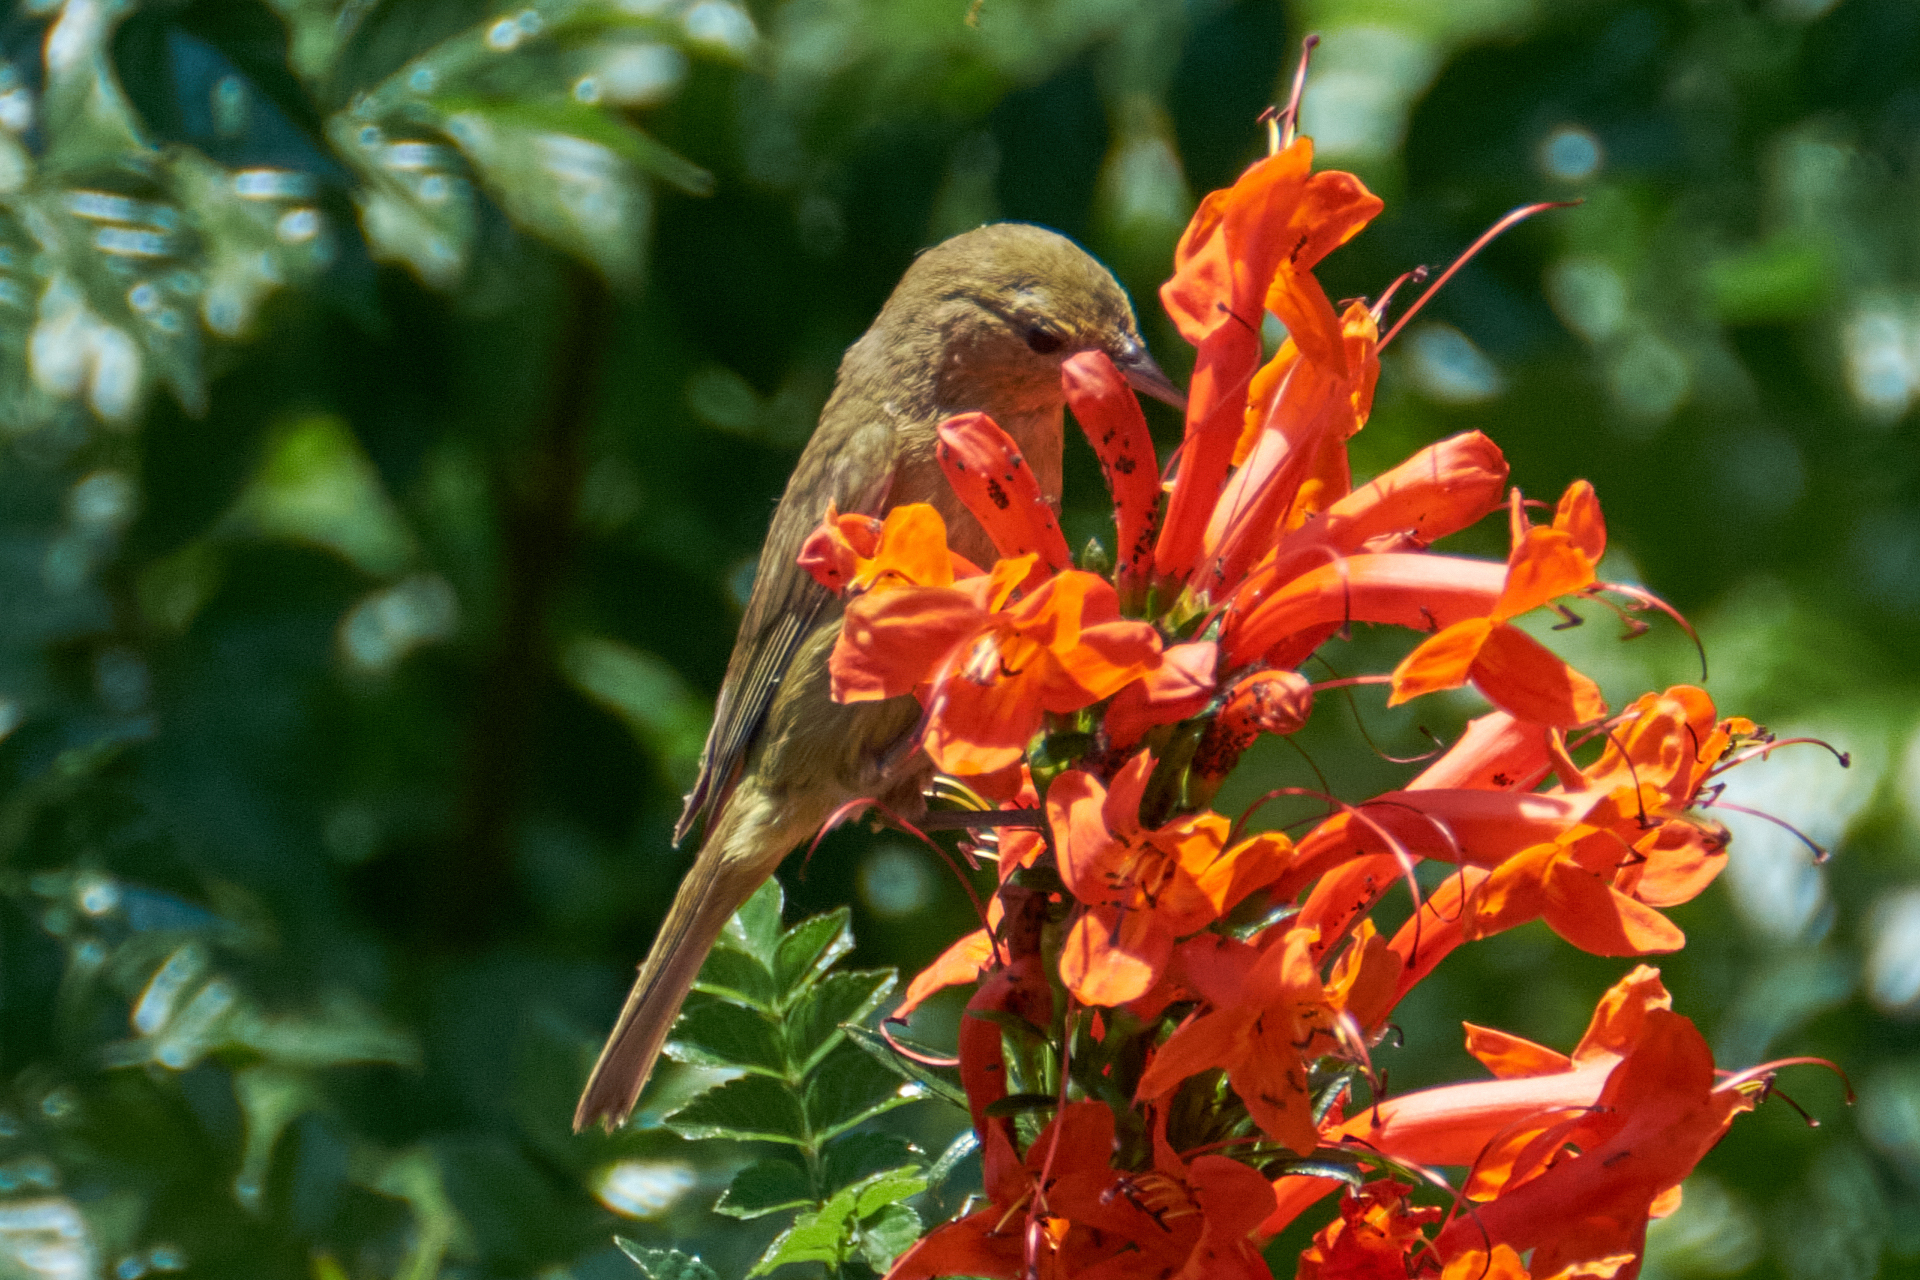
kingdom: Animalia
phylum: Chordata
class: Aves
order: Passeriformes
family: Parulidae
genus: Leiothlypis
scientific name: Leiothlypis celata
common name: Orange-crowned warbler
